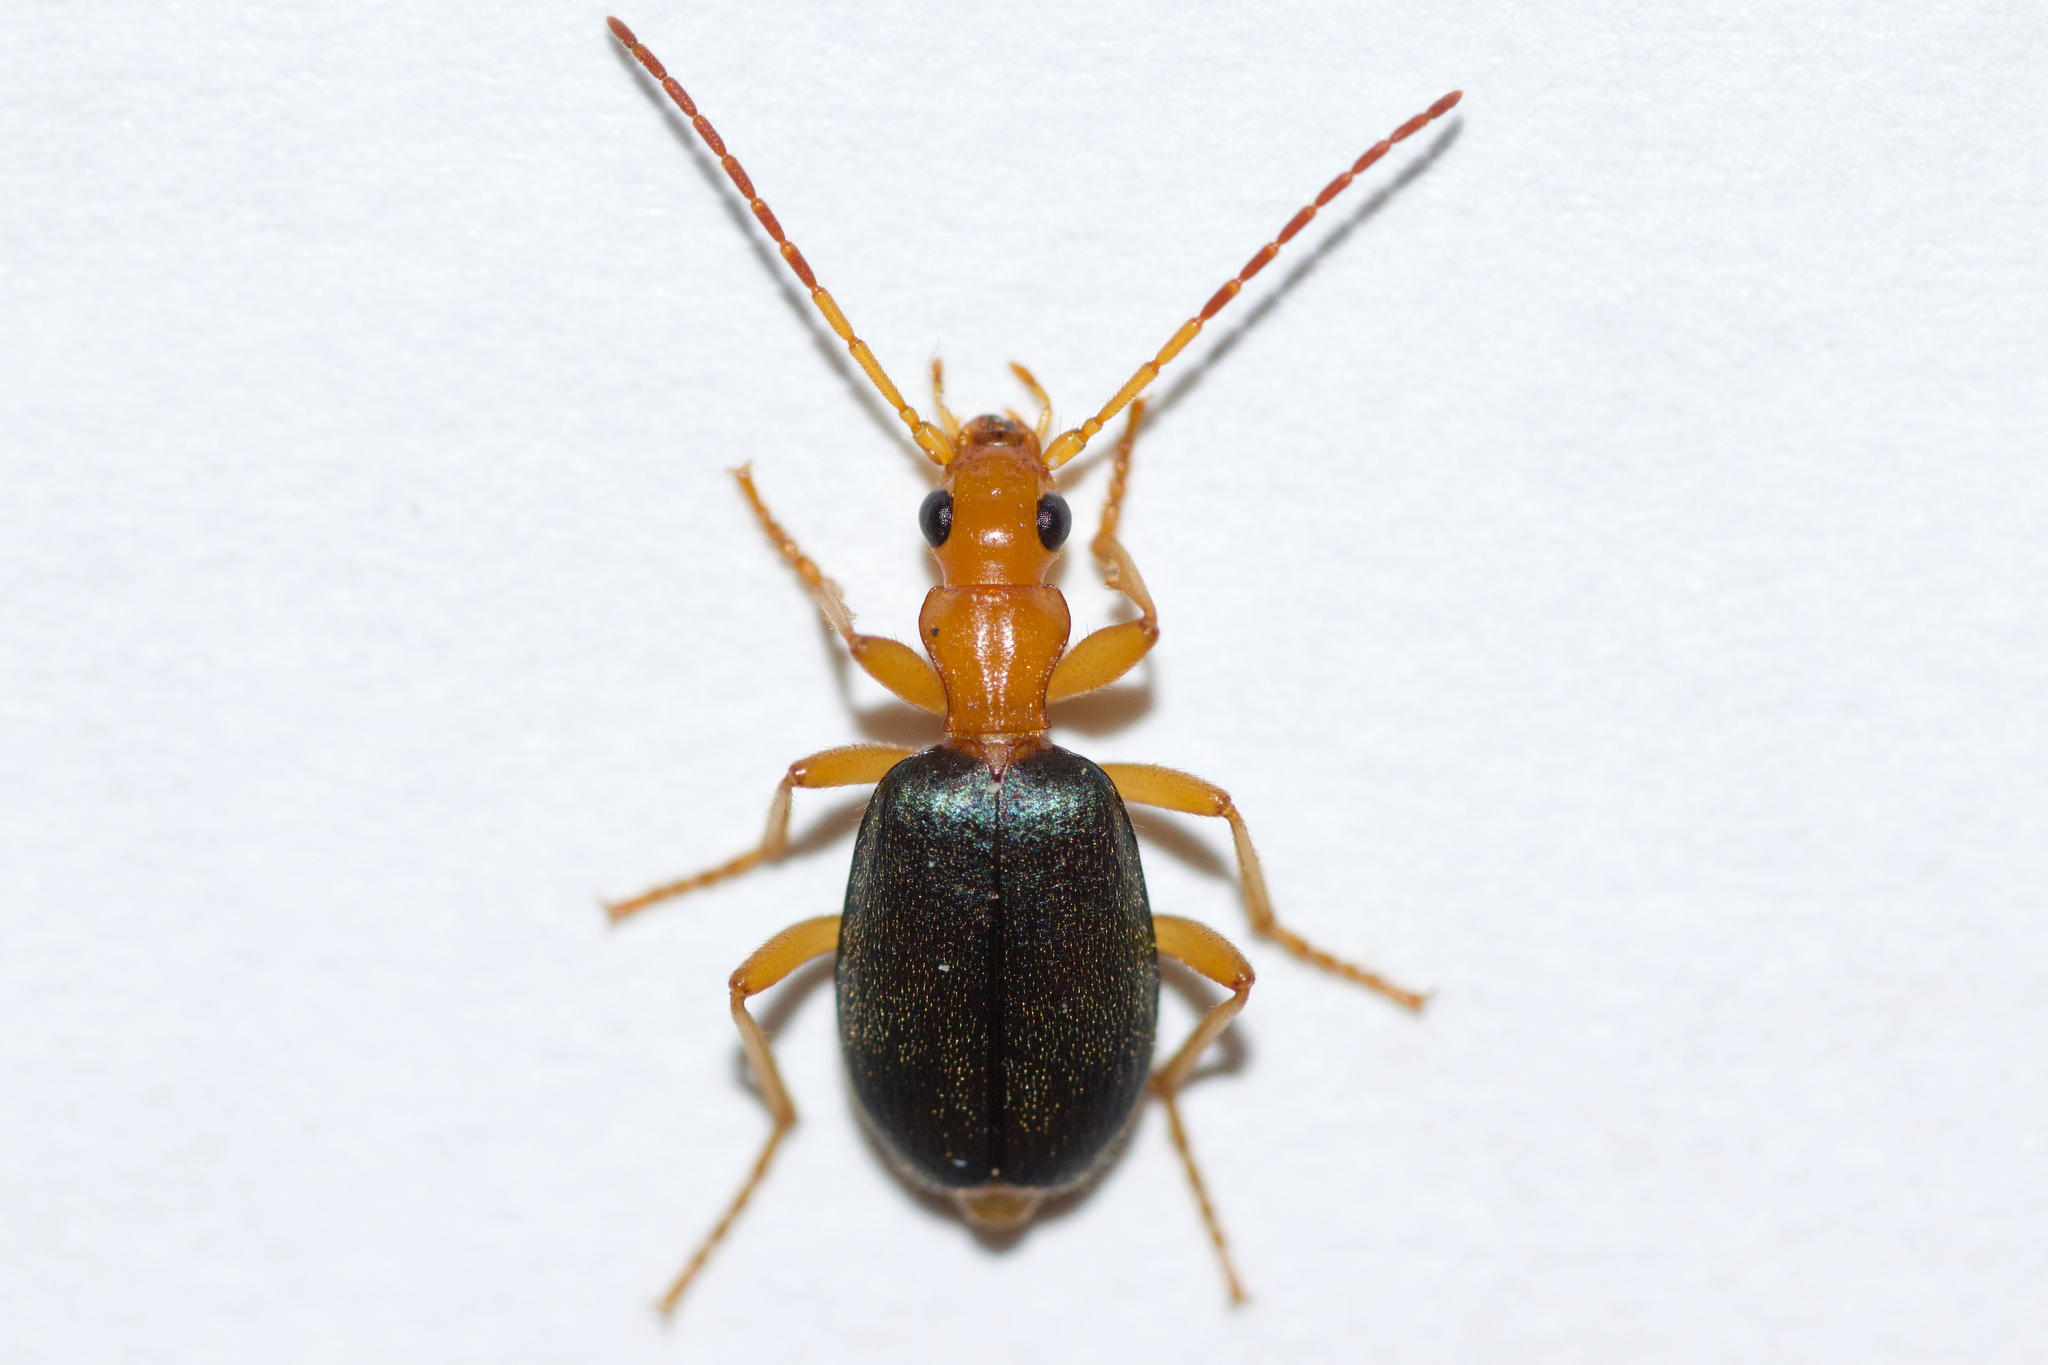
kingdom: Animalia
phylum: Arthropoda
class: Insecta
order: Coleoptera
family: Carabidae
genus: Brachinus
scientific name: Brachinus janthinipennis
